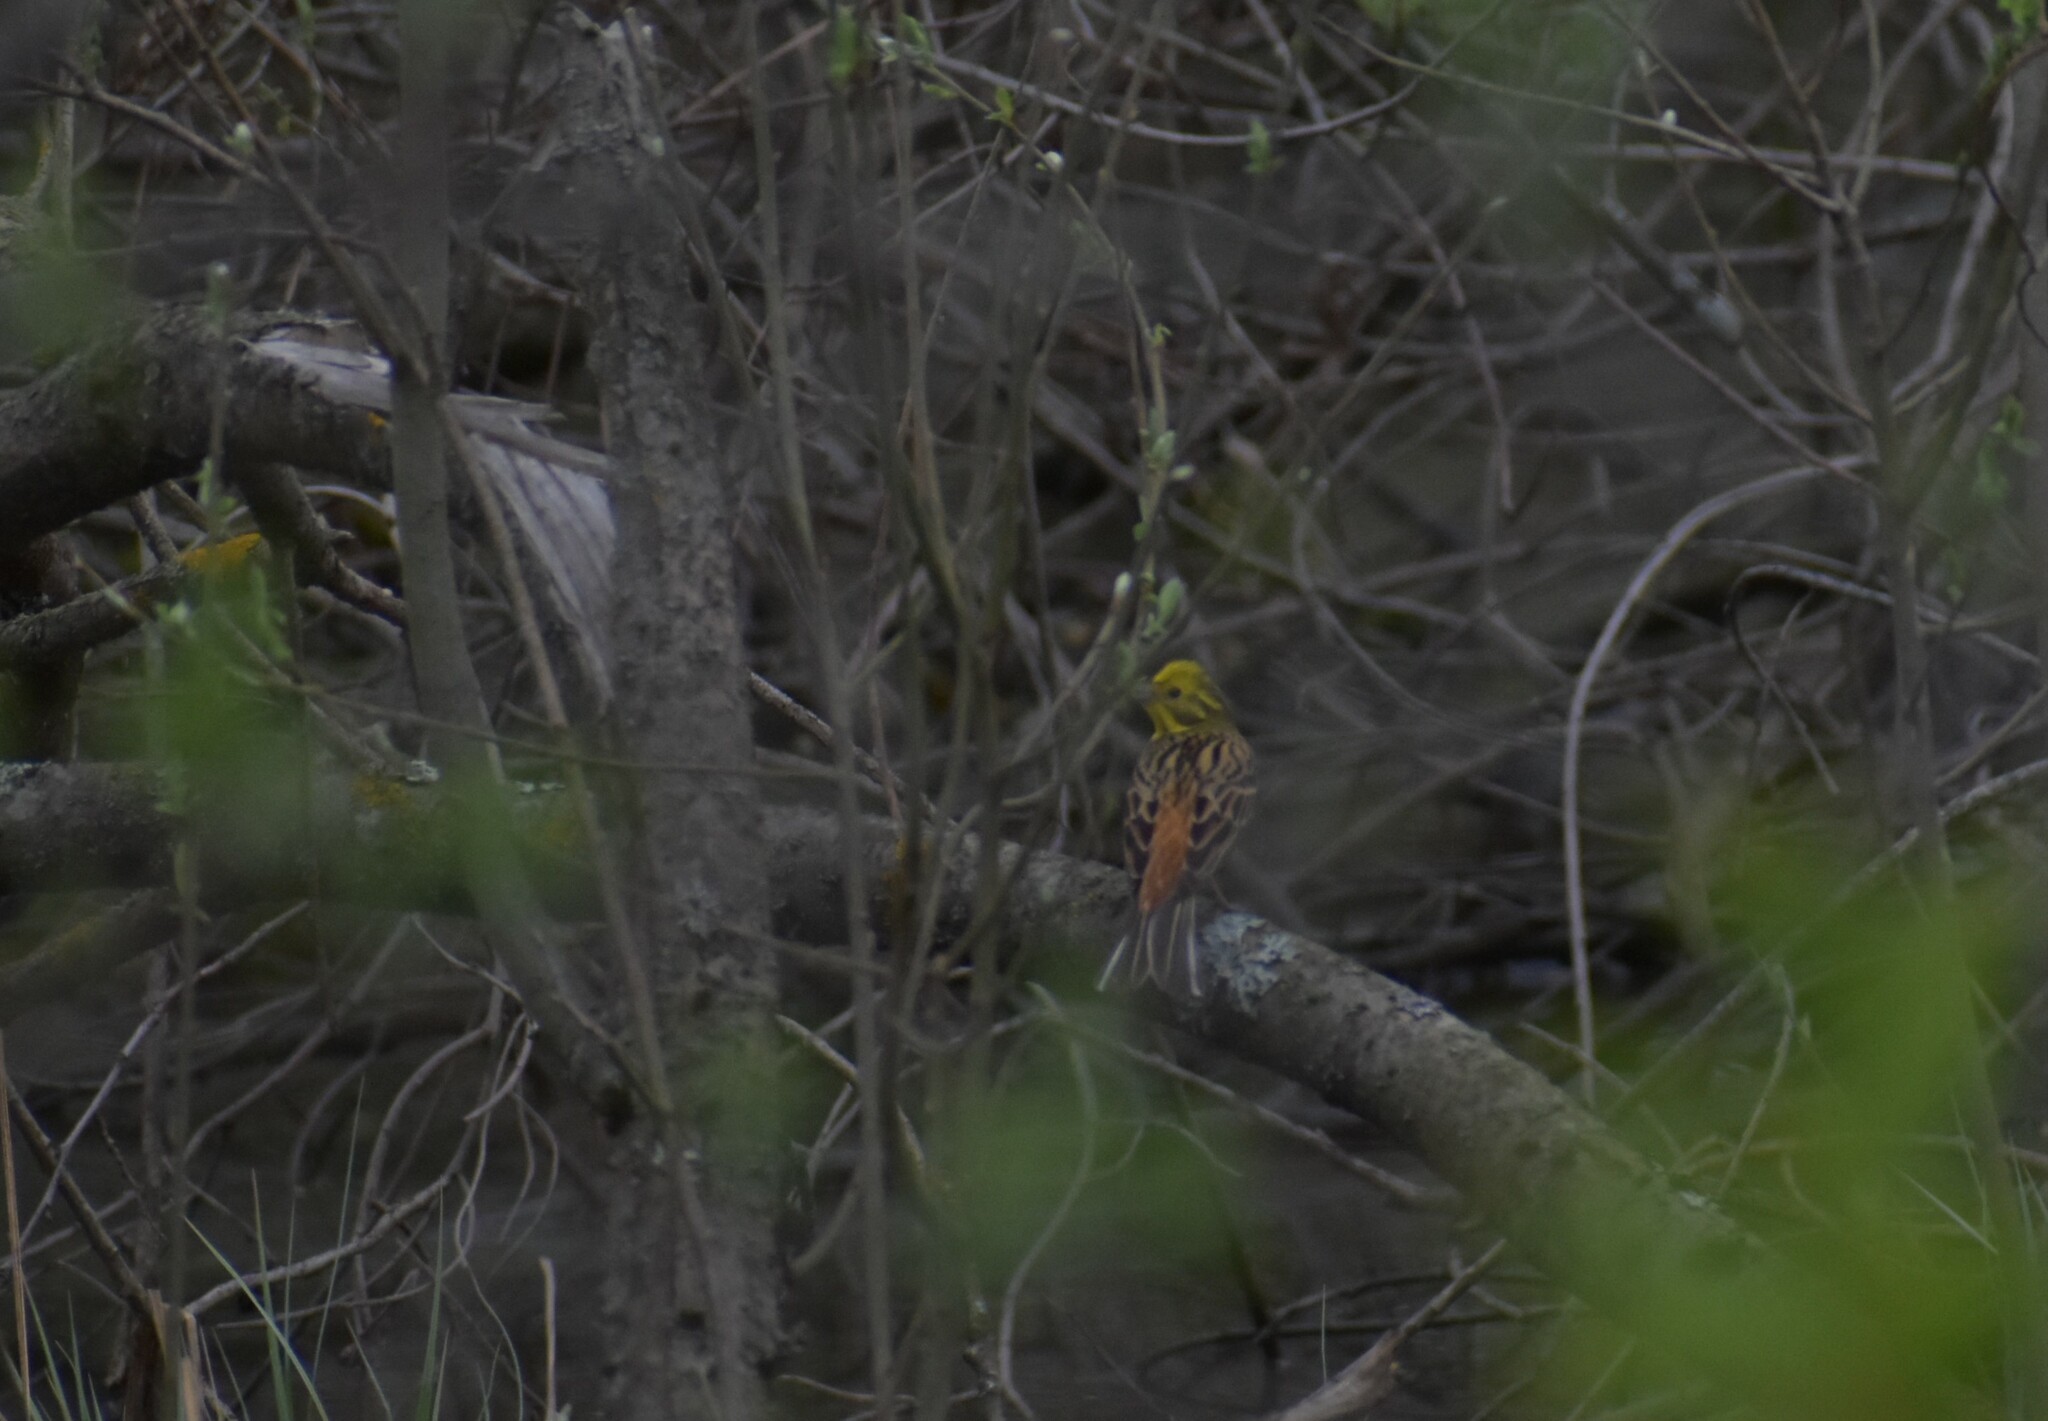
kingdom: Animalia
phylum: Chordata
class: Aves
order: Passeriformes
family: Emberizidae
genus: Emberiza
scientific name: Emberiza citrinella
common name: Yellowhammer
